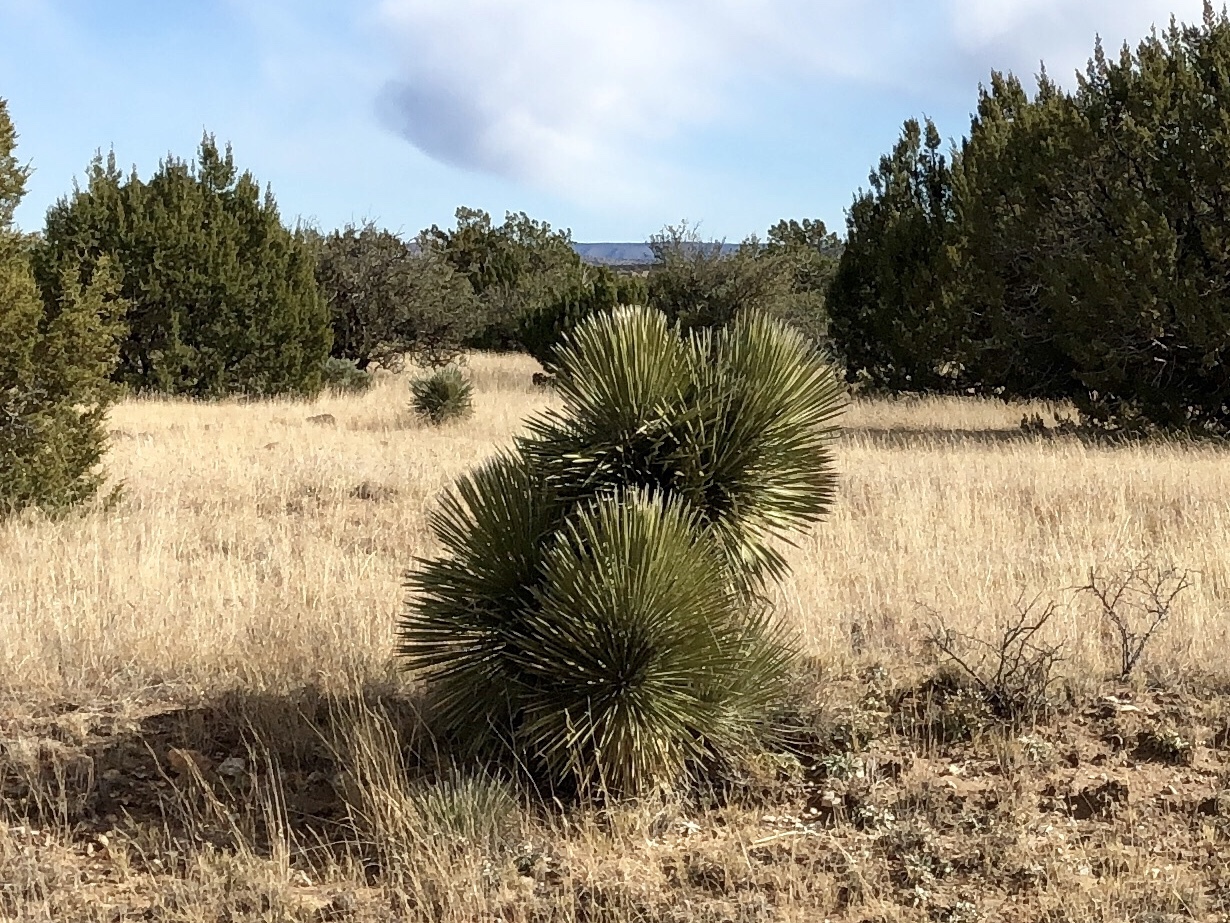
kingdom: Plantae
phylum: Tracheophyta
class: Liliopsida
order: Asparagales
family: Asparagaceae
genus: Yucca
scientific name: Yucca elata
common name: Palmella
